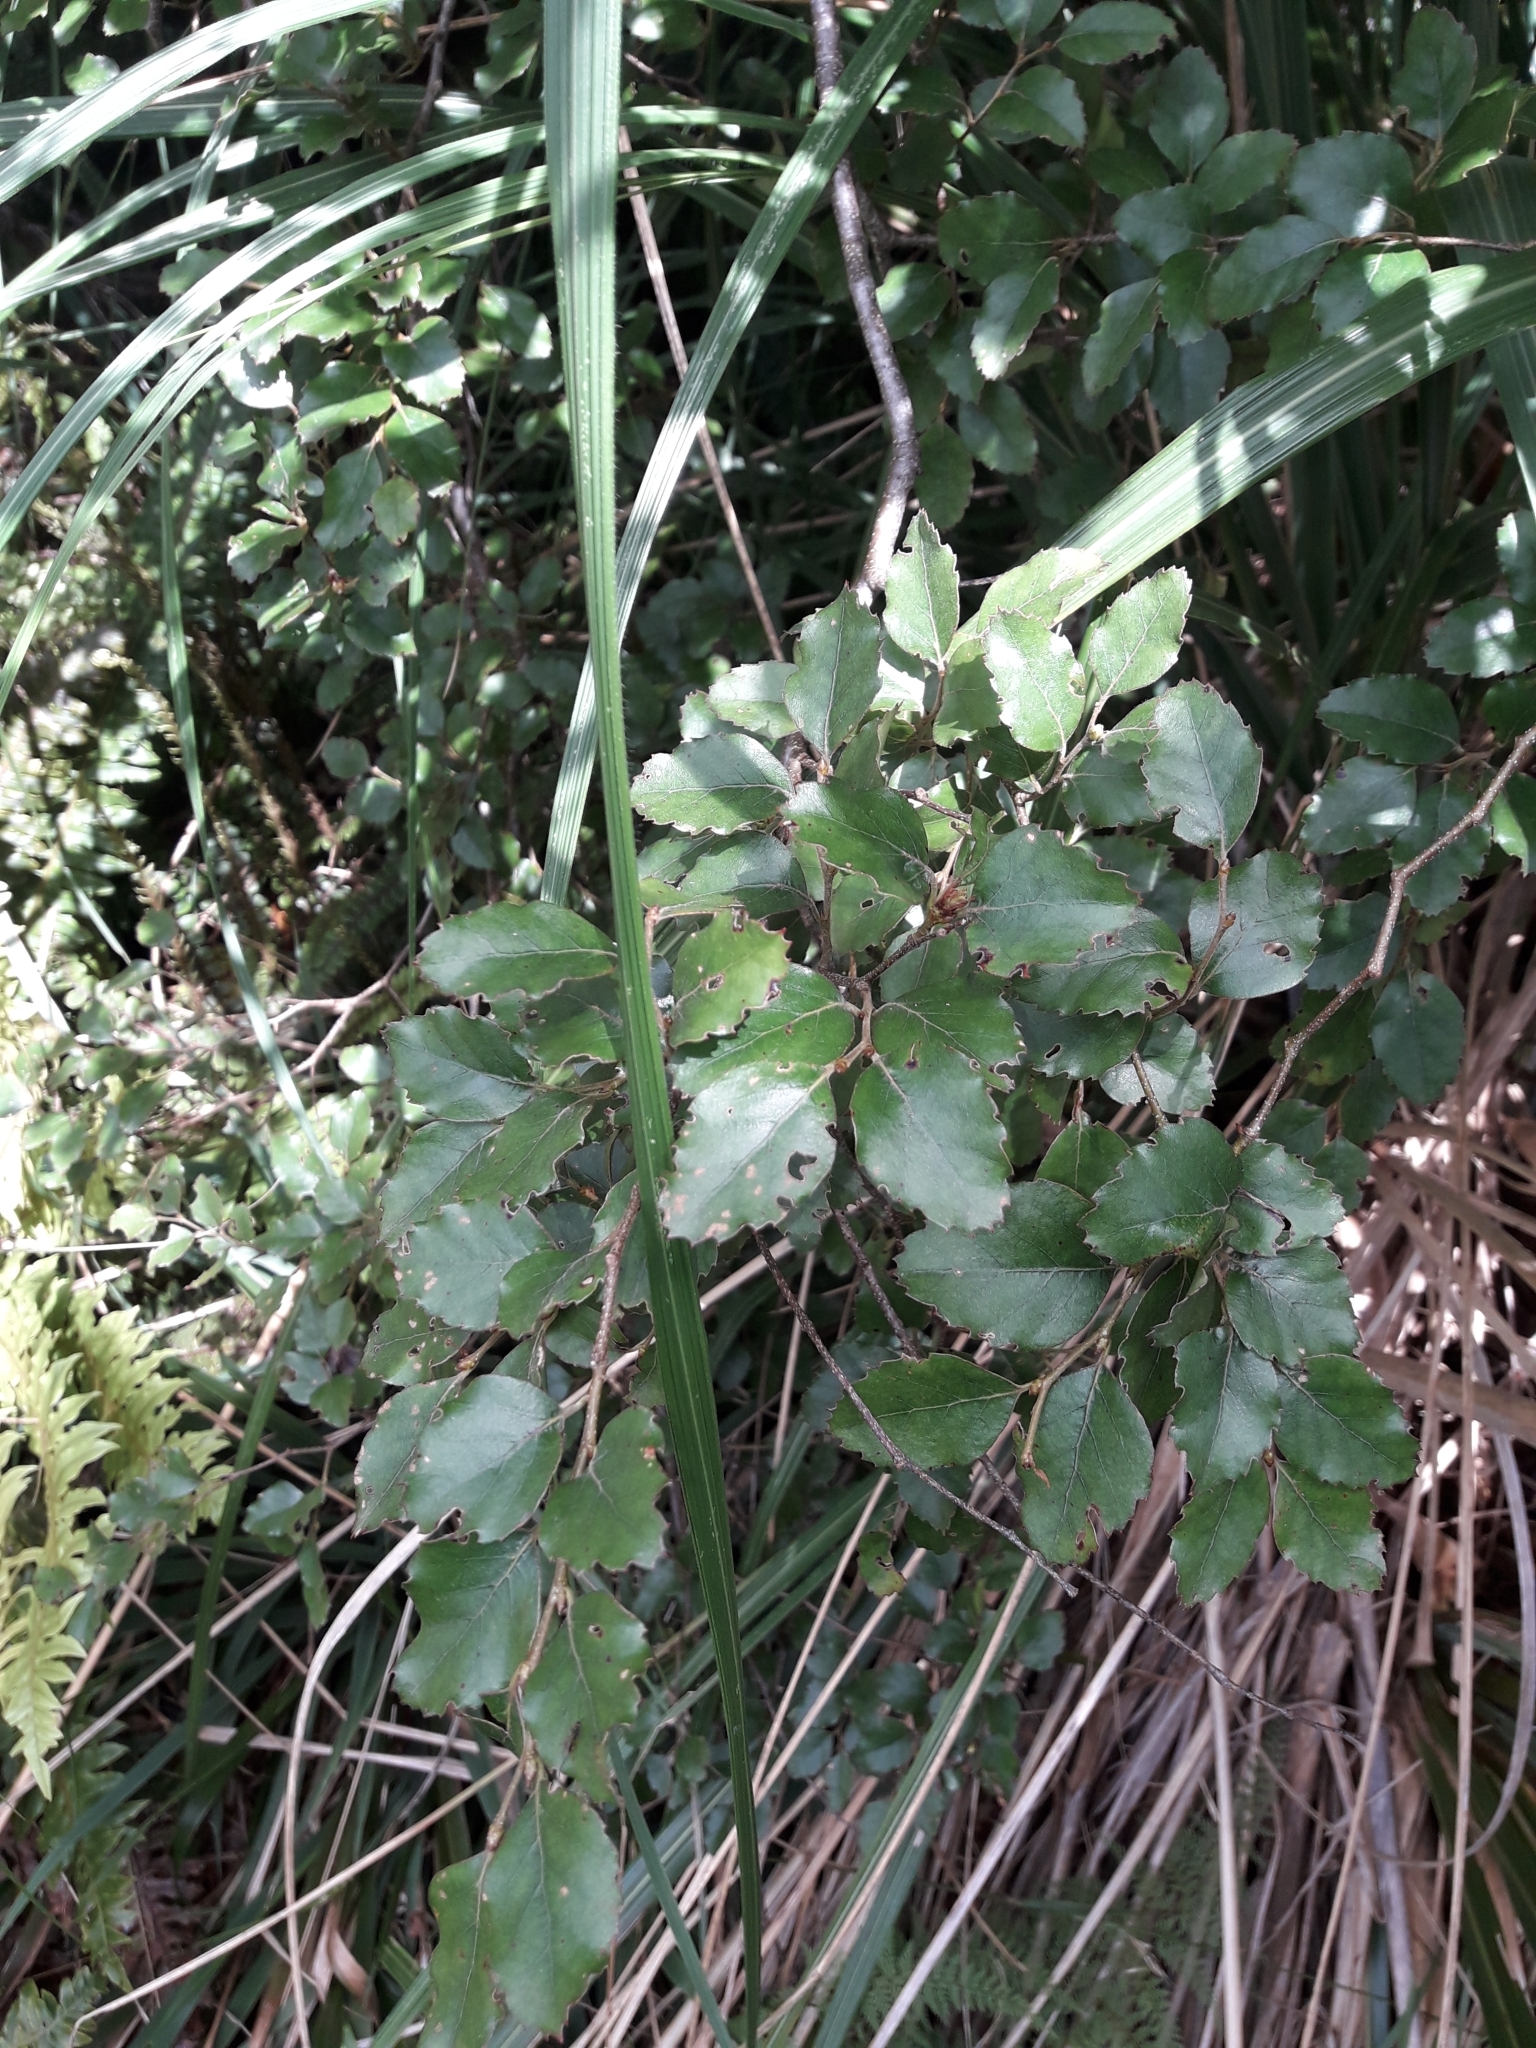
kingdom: Plantae
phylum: Tracheophyta
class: Magnoliopsida
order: Fagales
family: Nothofagaceae
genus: Nothofagus
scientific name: Nothofagus truncata
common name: Hard beech
